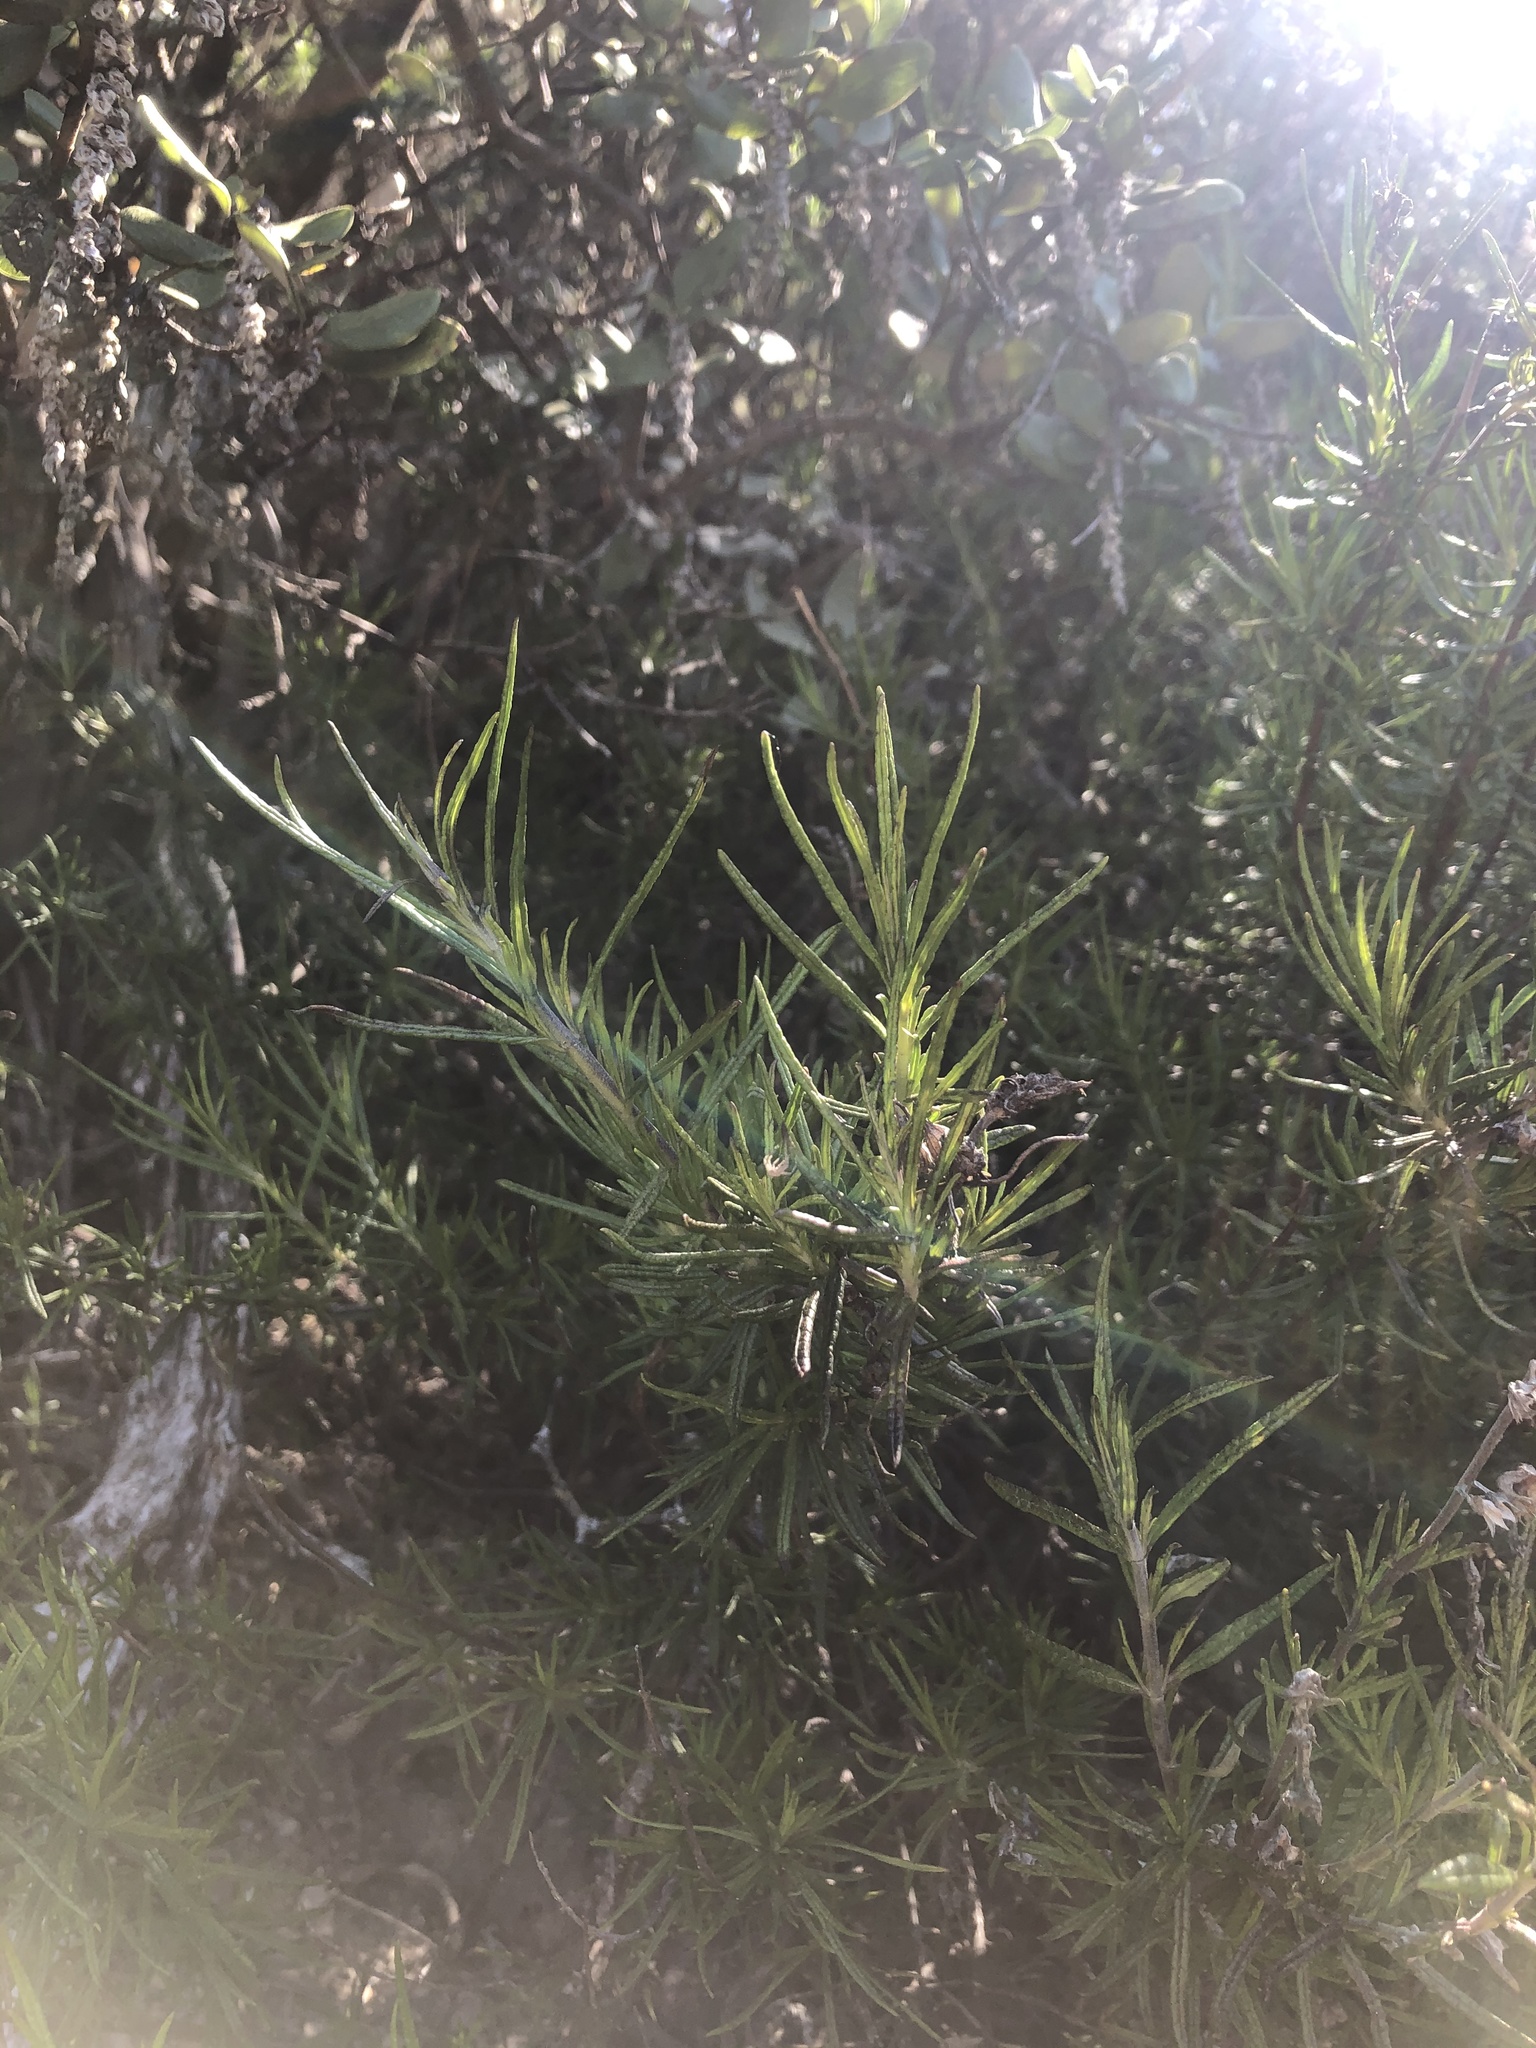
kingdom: Plantae
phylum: Tracheophyta
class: Magnoliopsida
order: Lamiales
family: Lamiaceae
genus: Trichostema
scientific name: Trichostema lanatum
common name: Woolly bluecurls
